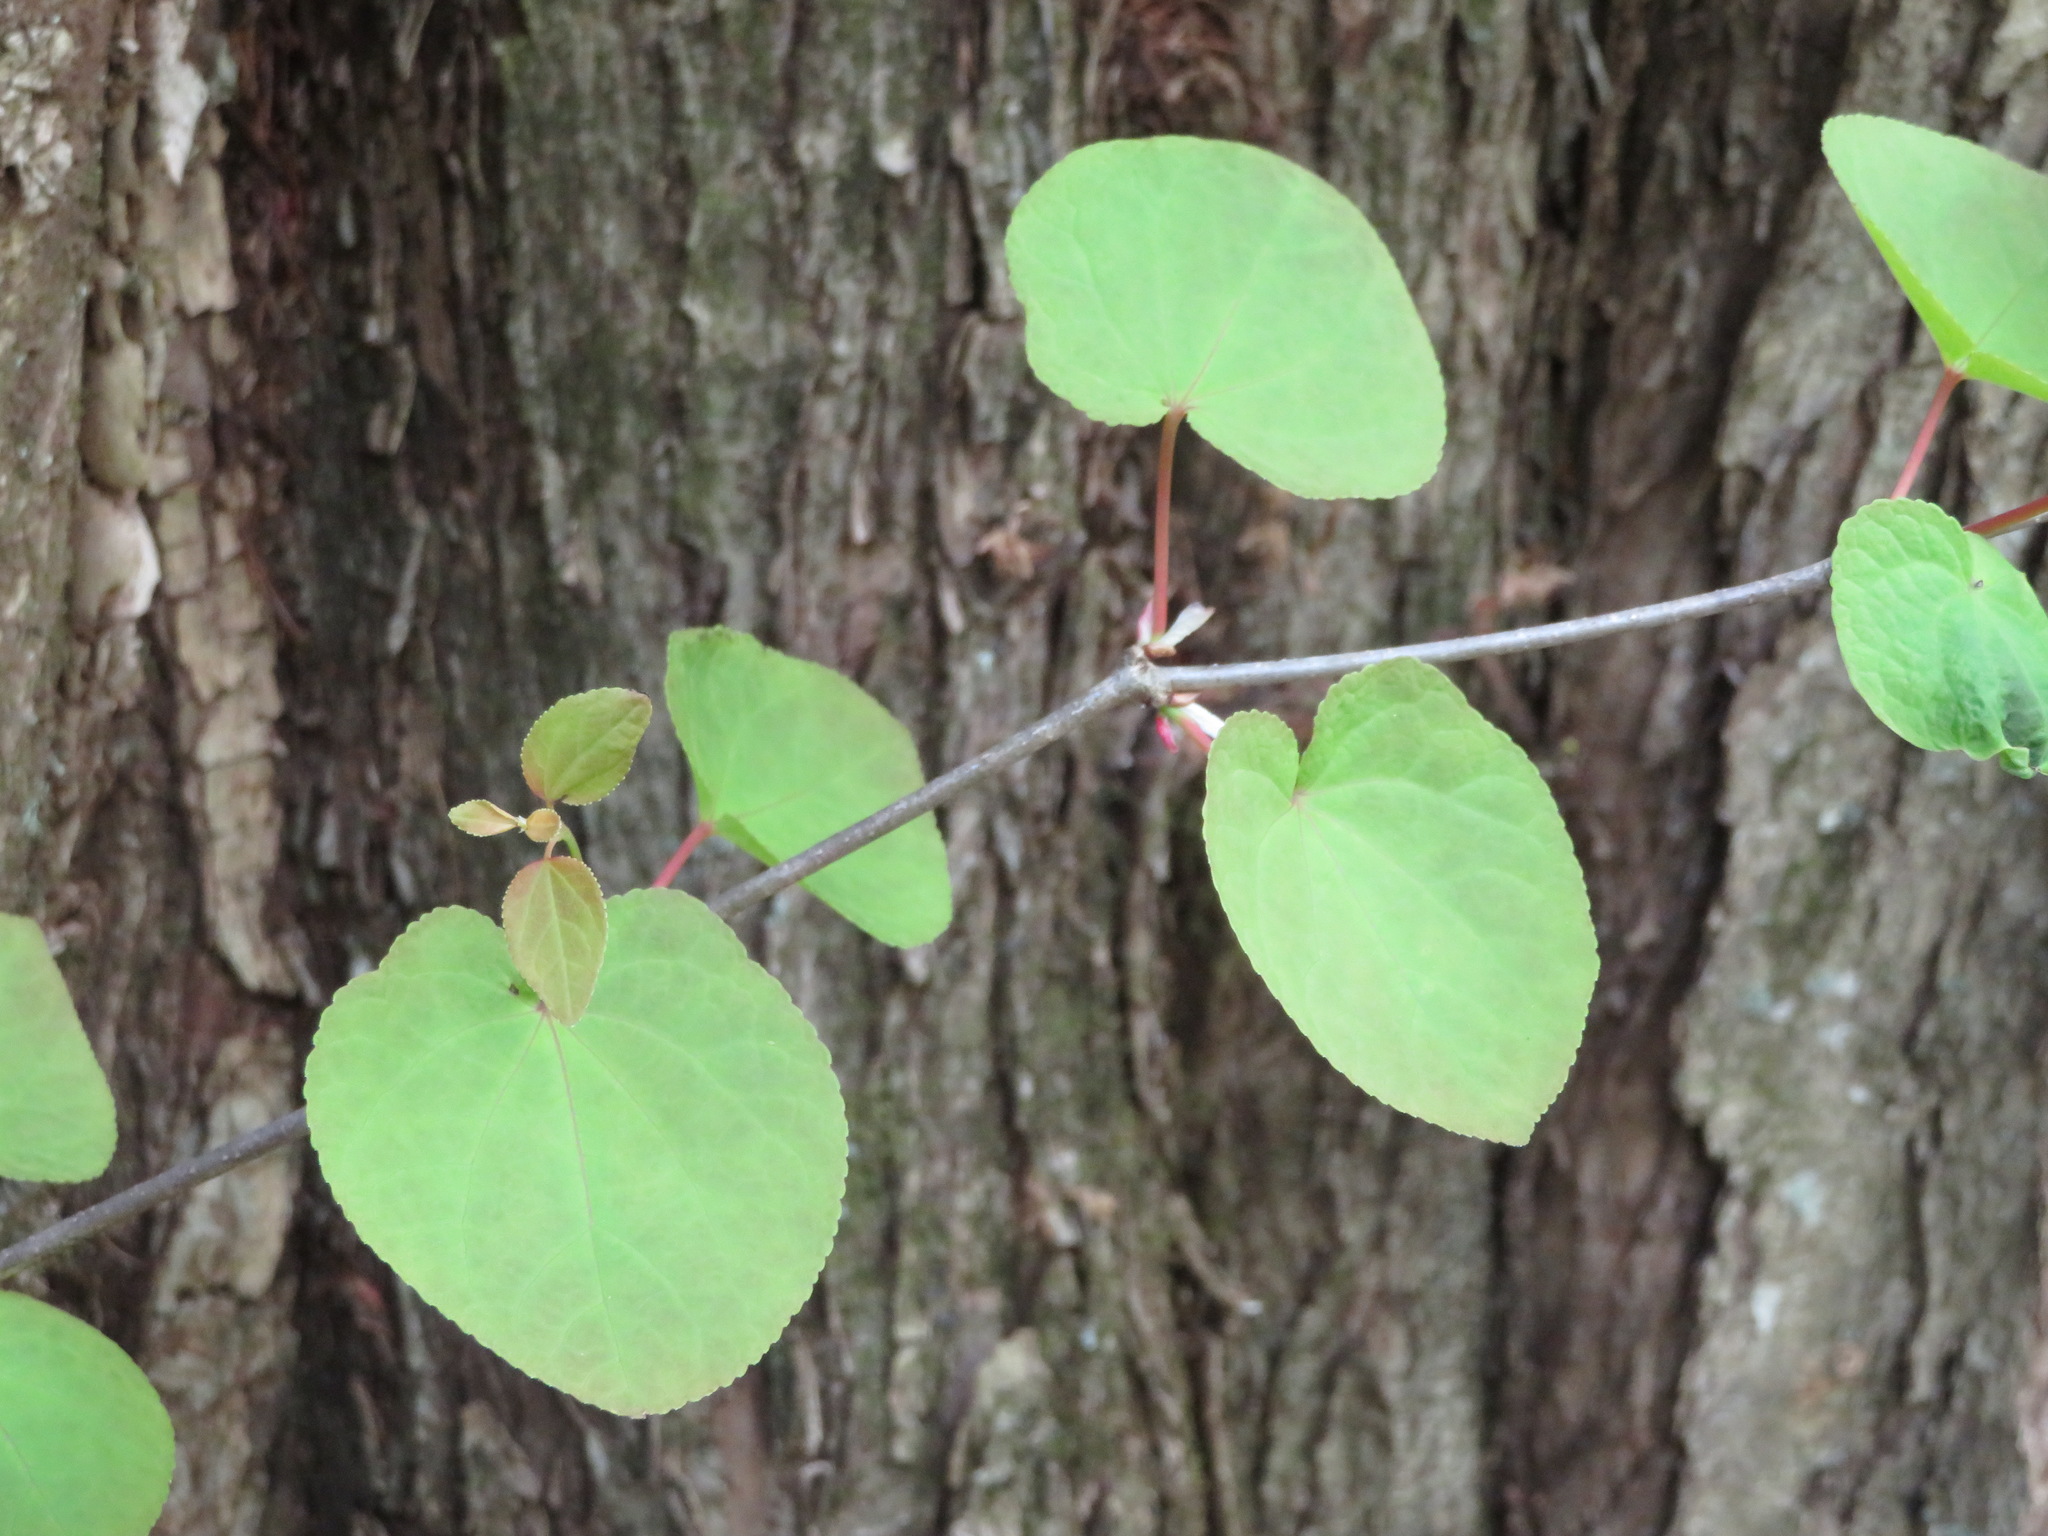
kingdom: Plantae
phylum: Tracheophyta
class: Magnoliopsida
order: Saxifragales
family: Cercidiphyllaceae
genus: Cercidiphyllum
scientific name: Cercidiphyllum japonicum
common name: Katsura tree
